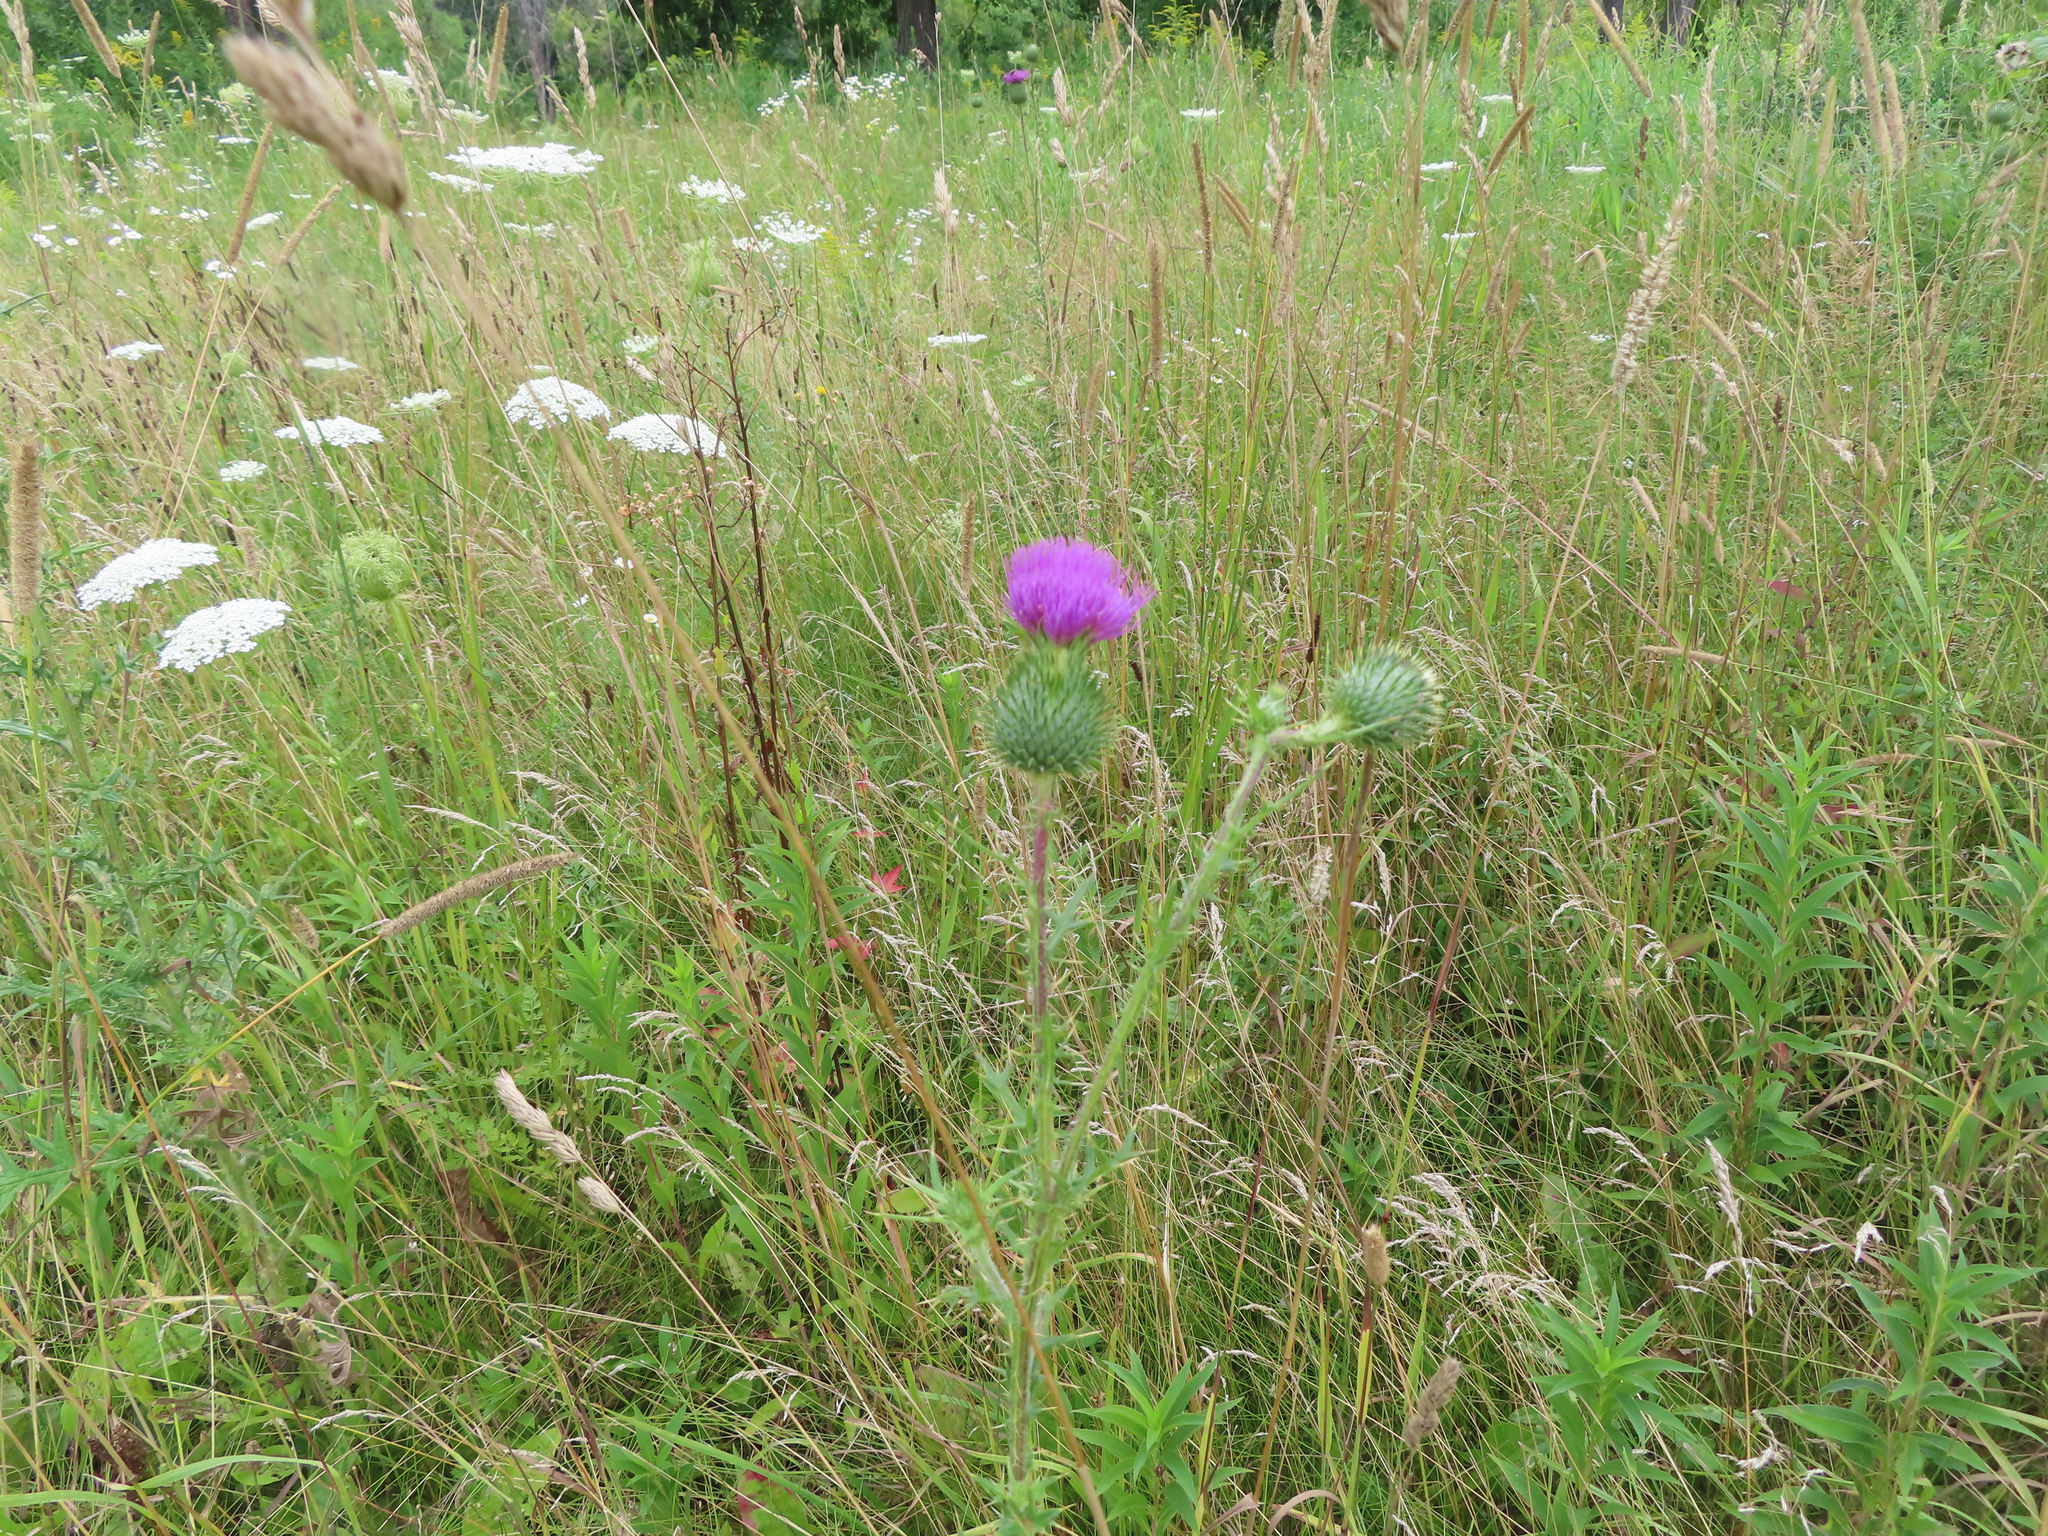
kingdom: Plantae
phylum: Tracheophyta
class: Magnoliopsida
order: Apiales
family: Apiaceae
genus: Daucus
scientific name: Daucus carota
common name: Wild carrot
